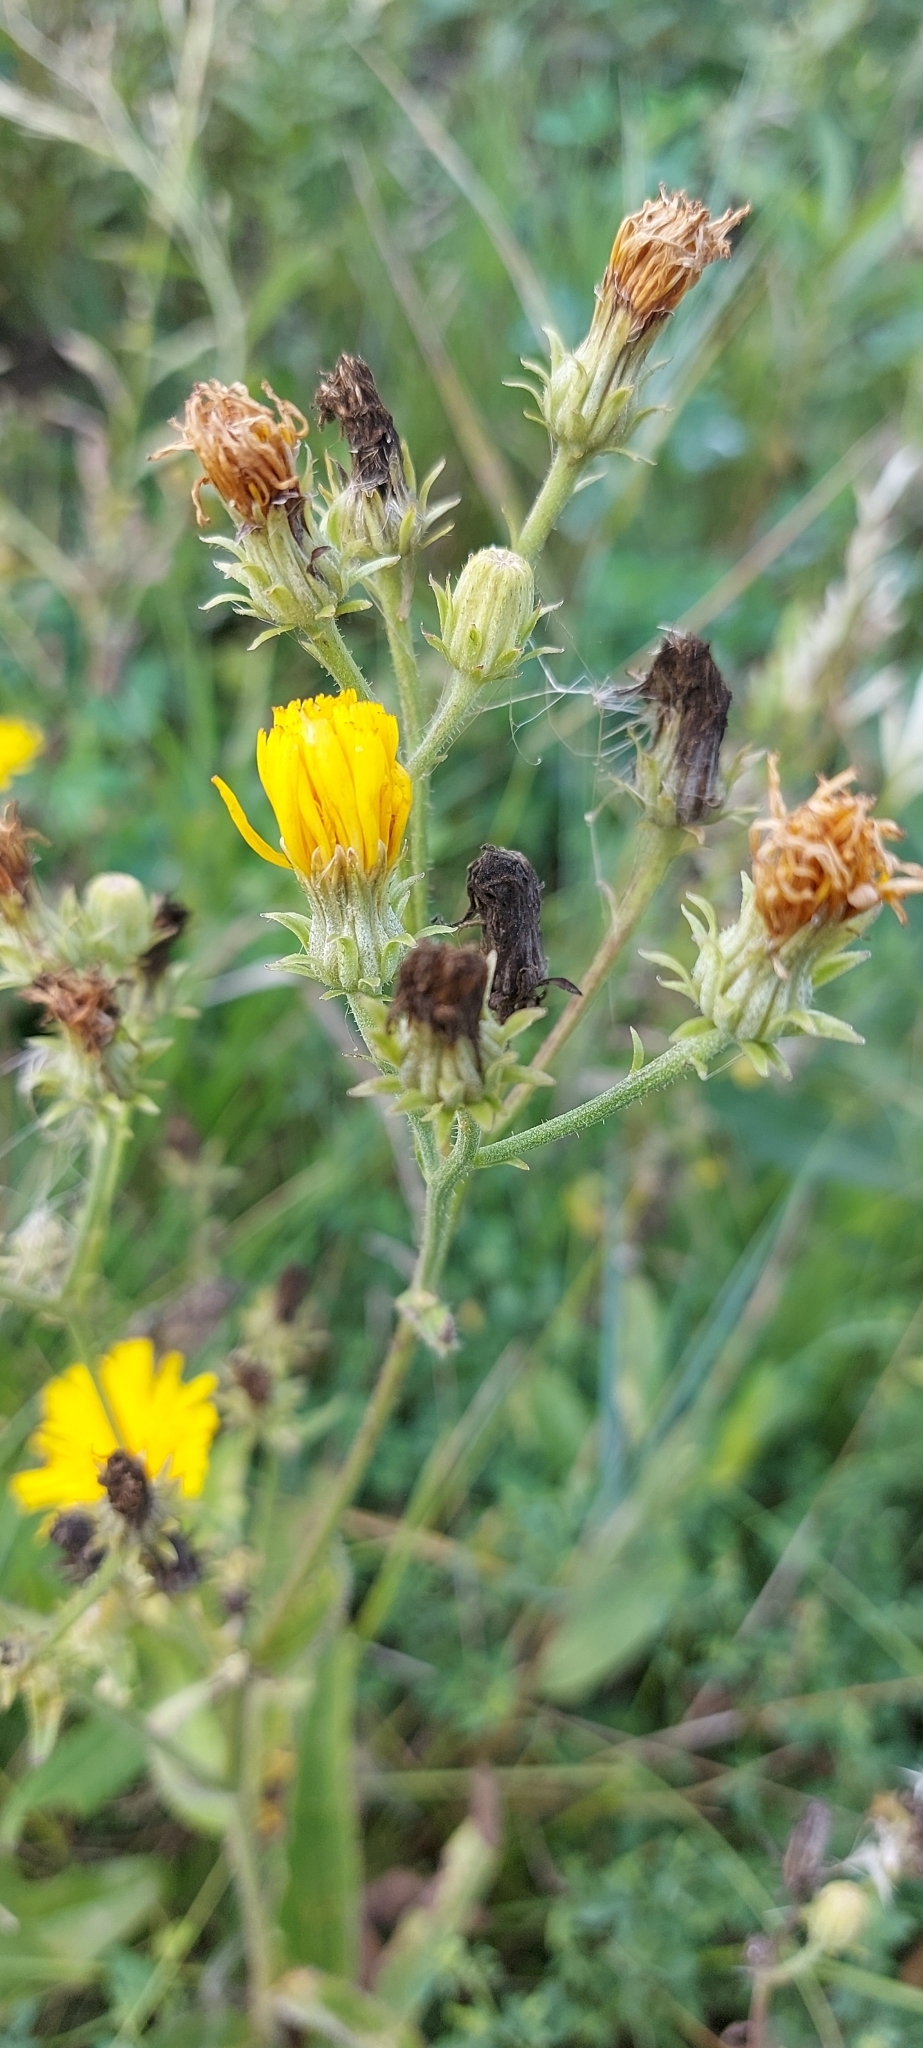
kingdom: Plantae
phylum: Tracheophyta
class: Magnoliopsida
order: Asterales
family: Asteraceae
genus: Picris
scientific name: Picris hieracioides
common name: Hawkweed oxtongue
